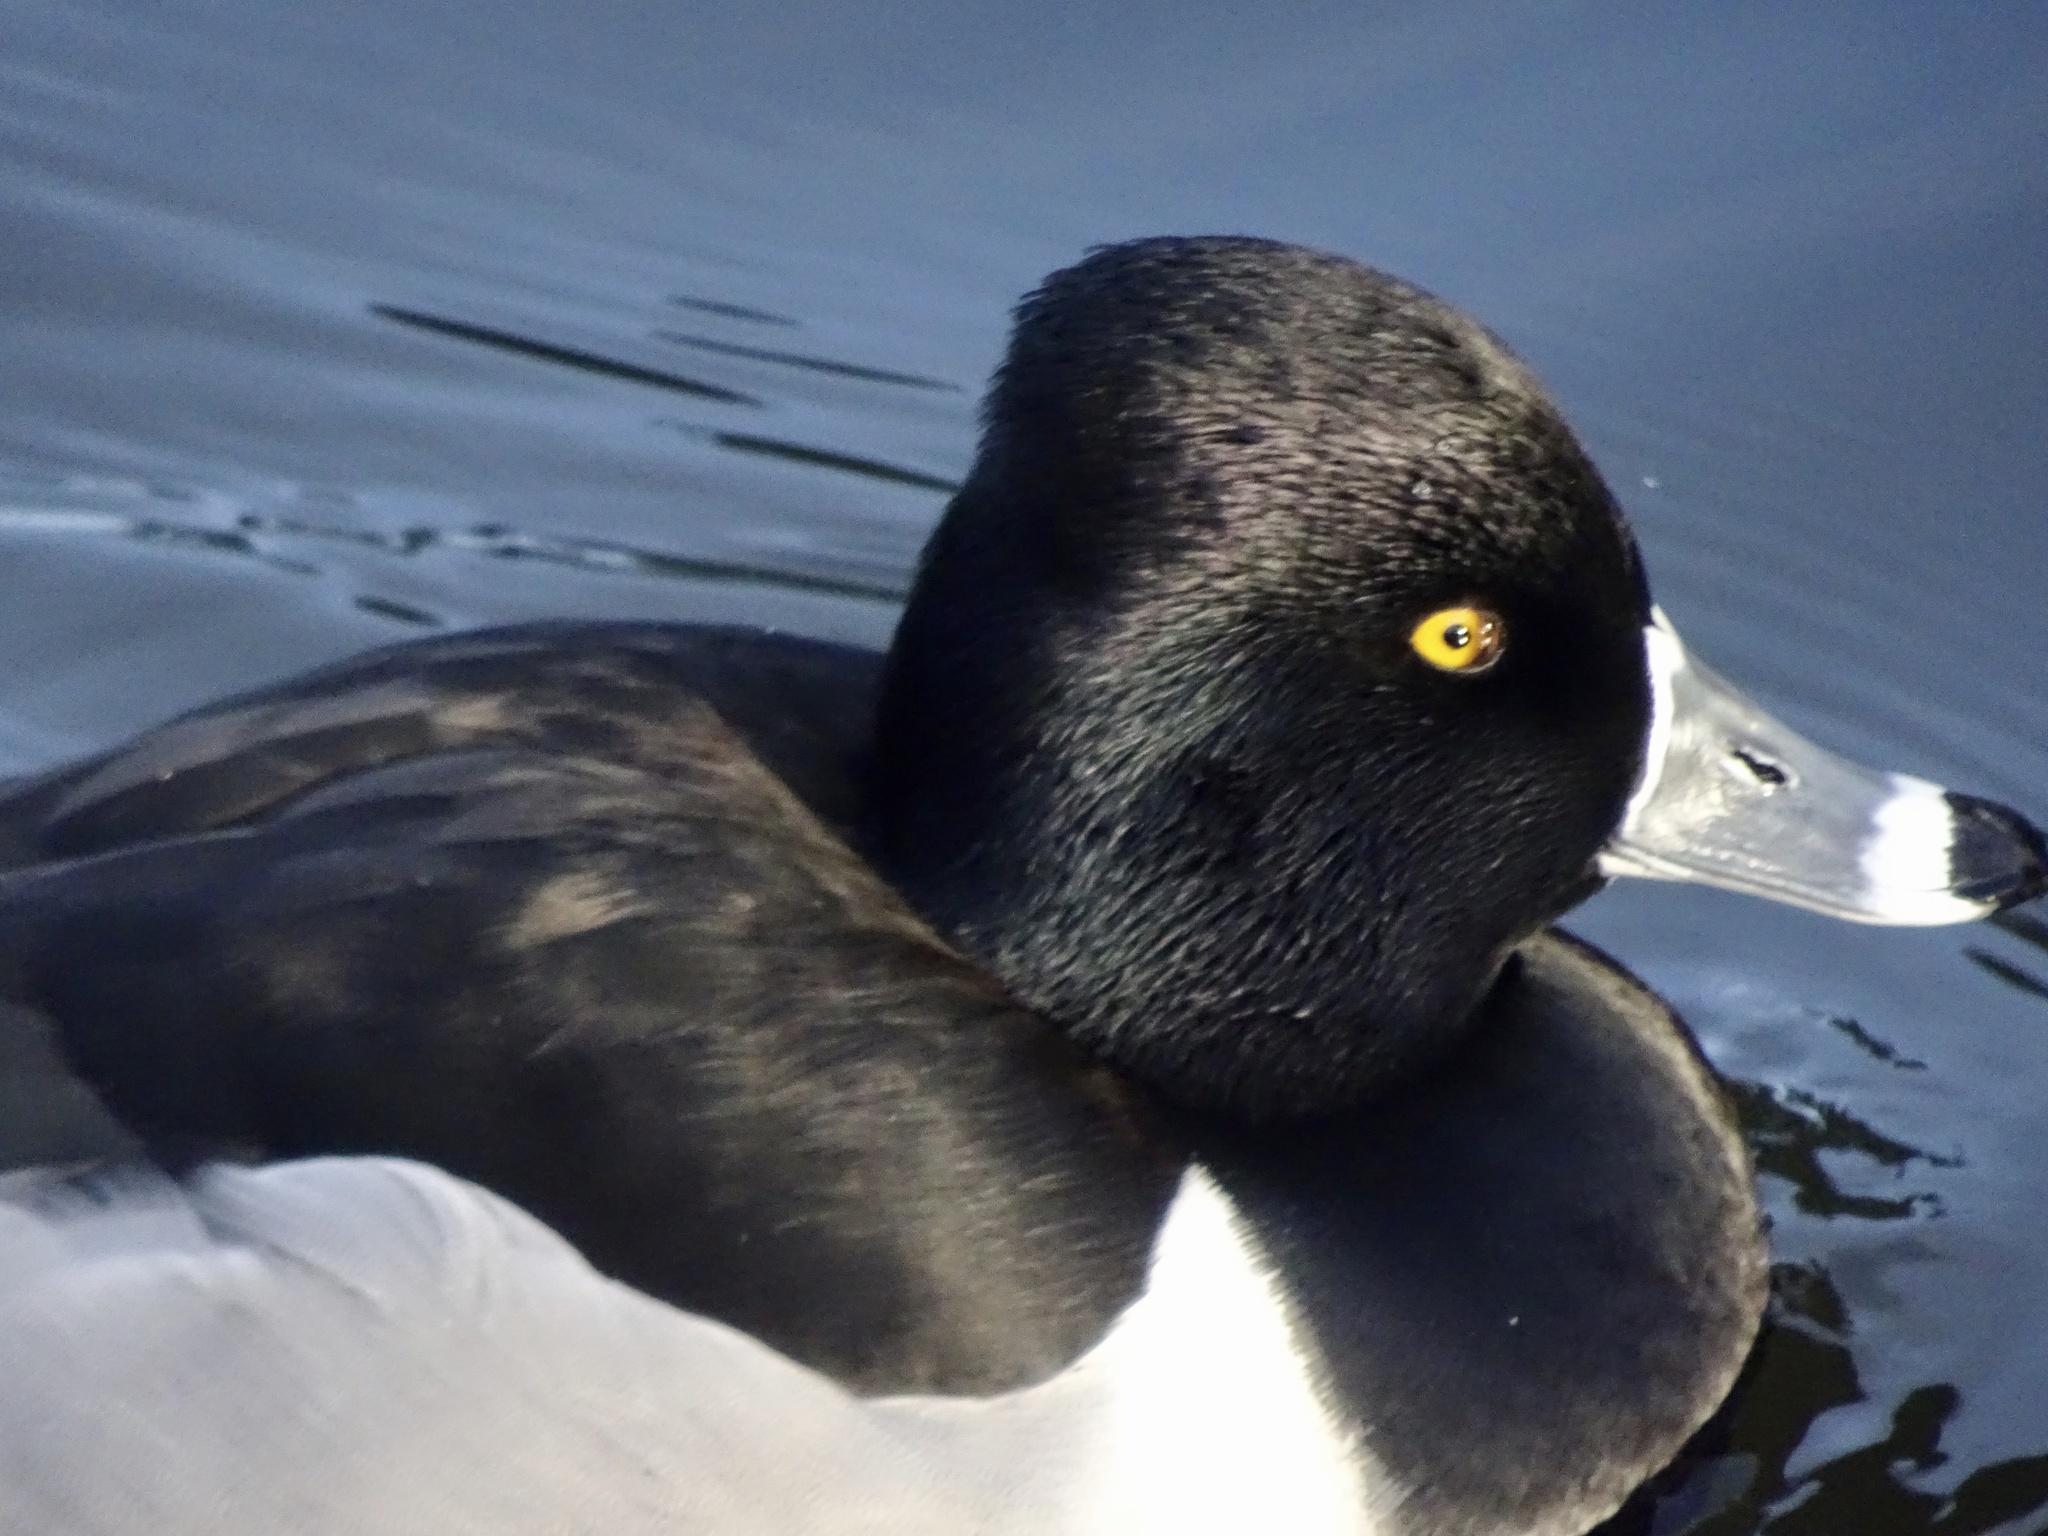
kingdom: Animalia
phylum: Chordata
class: Aves
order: Anseriformes
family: Anatidae
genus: Aythya
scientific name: Aythya collaris
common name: Ring-necked duck
